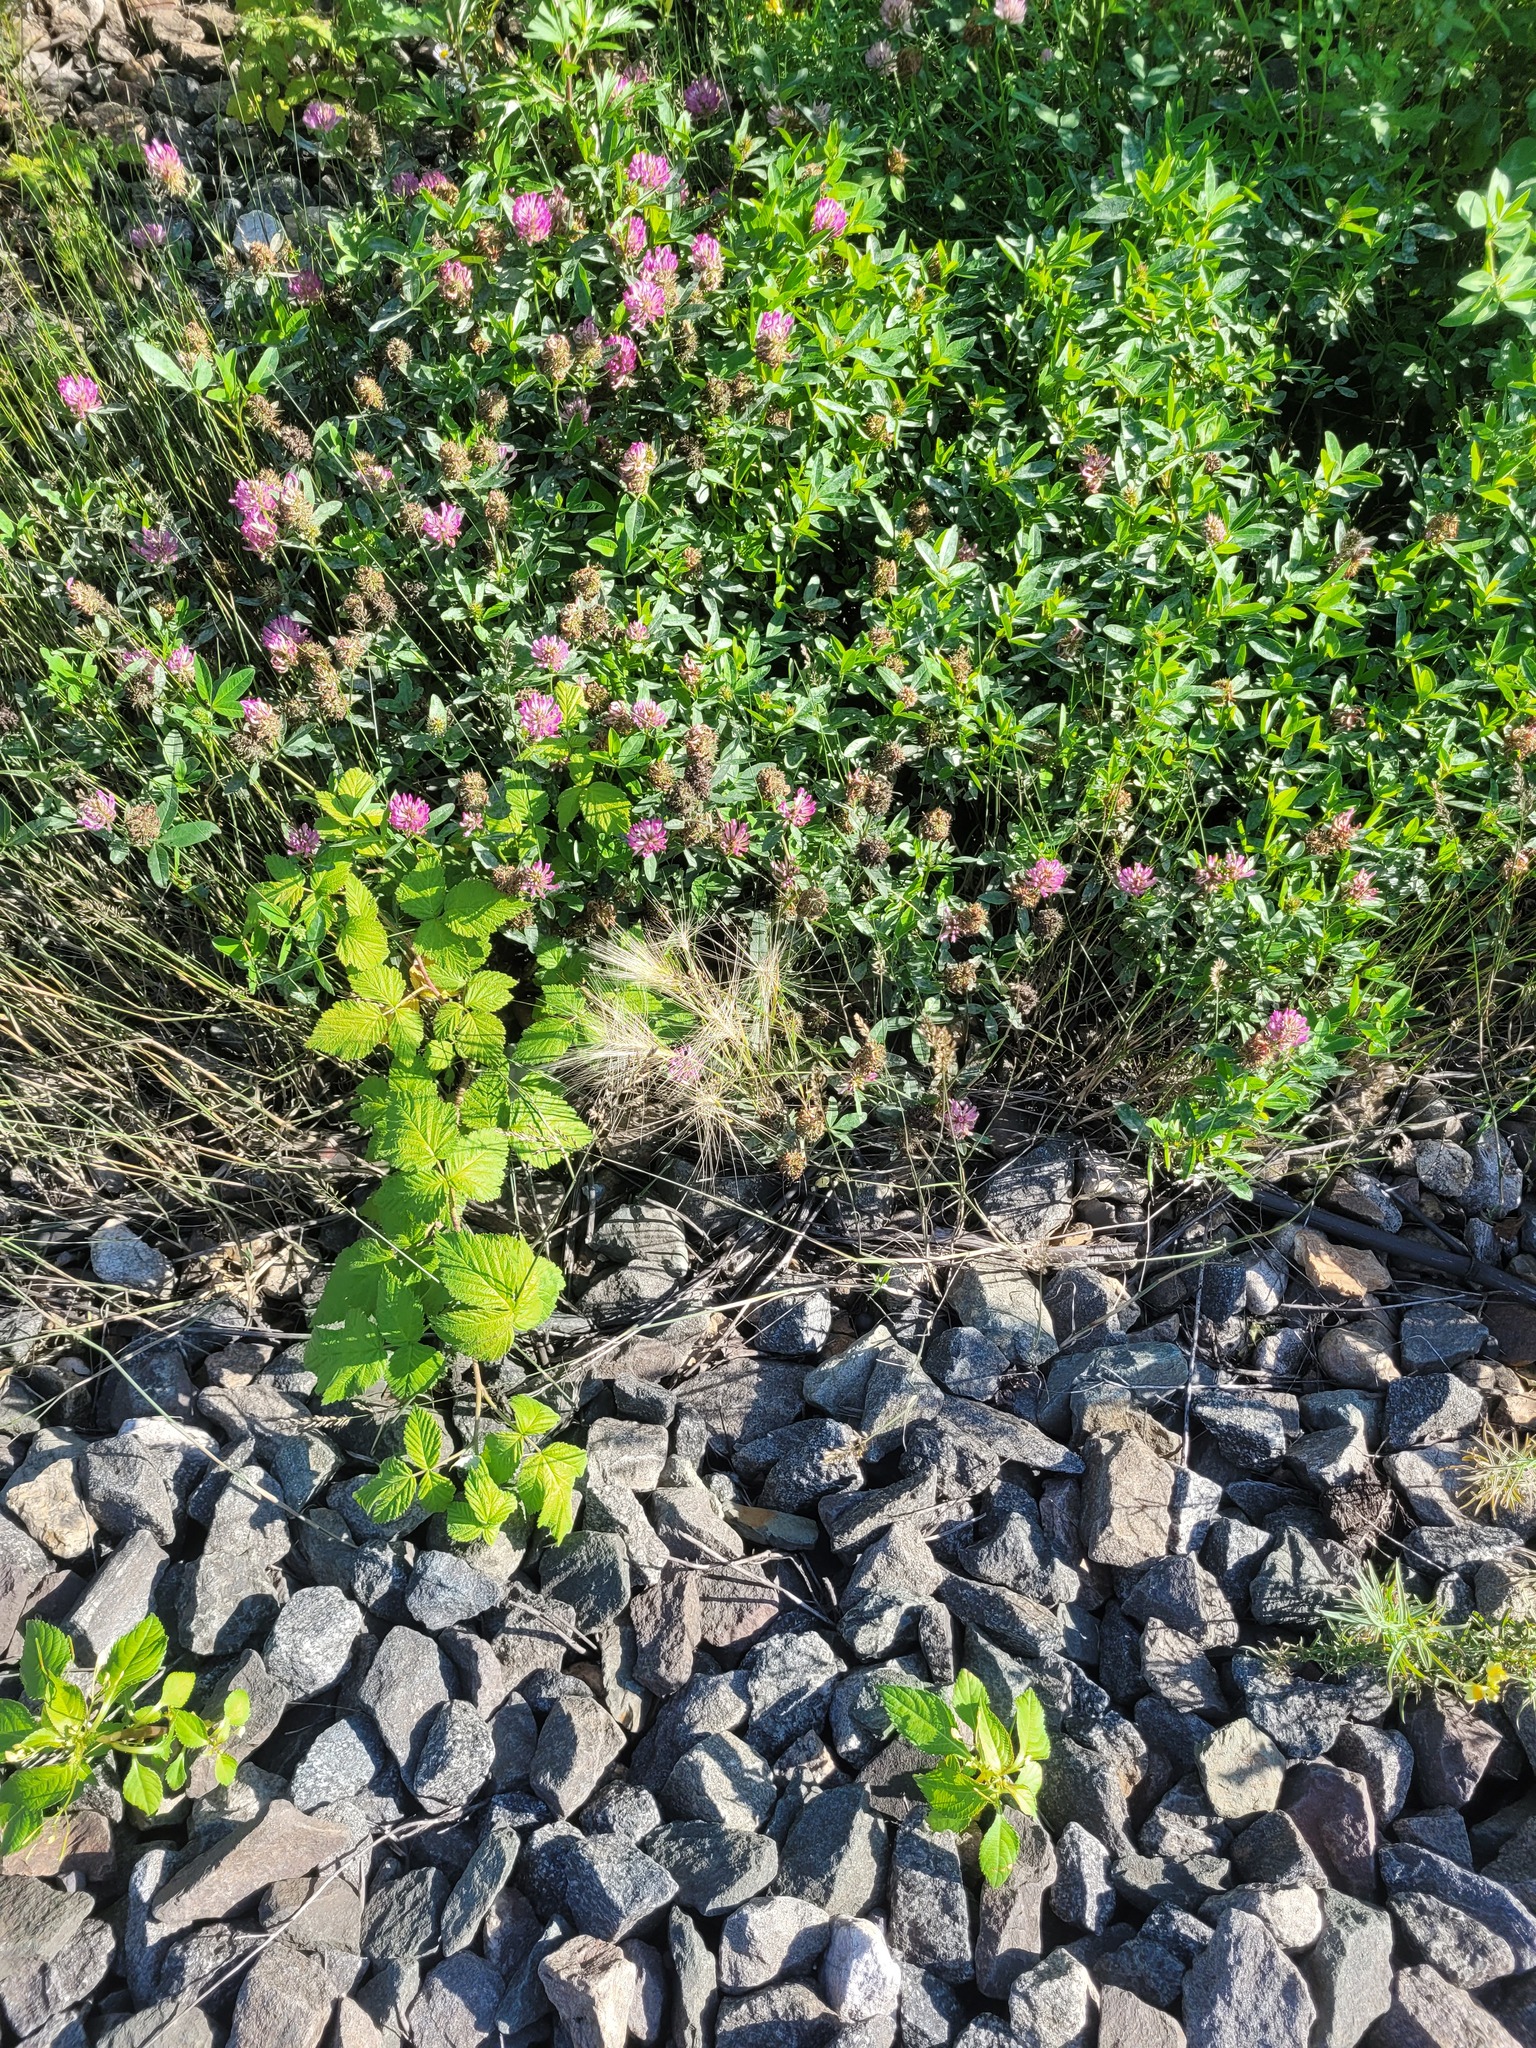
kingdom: Plantae
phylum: Tracheophyta
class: Liliopsida
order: Poales
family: Poaceae
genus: Hordeum
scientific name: Hordeum jubatum
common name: Foxtail barley
